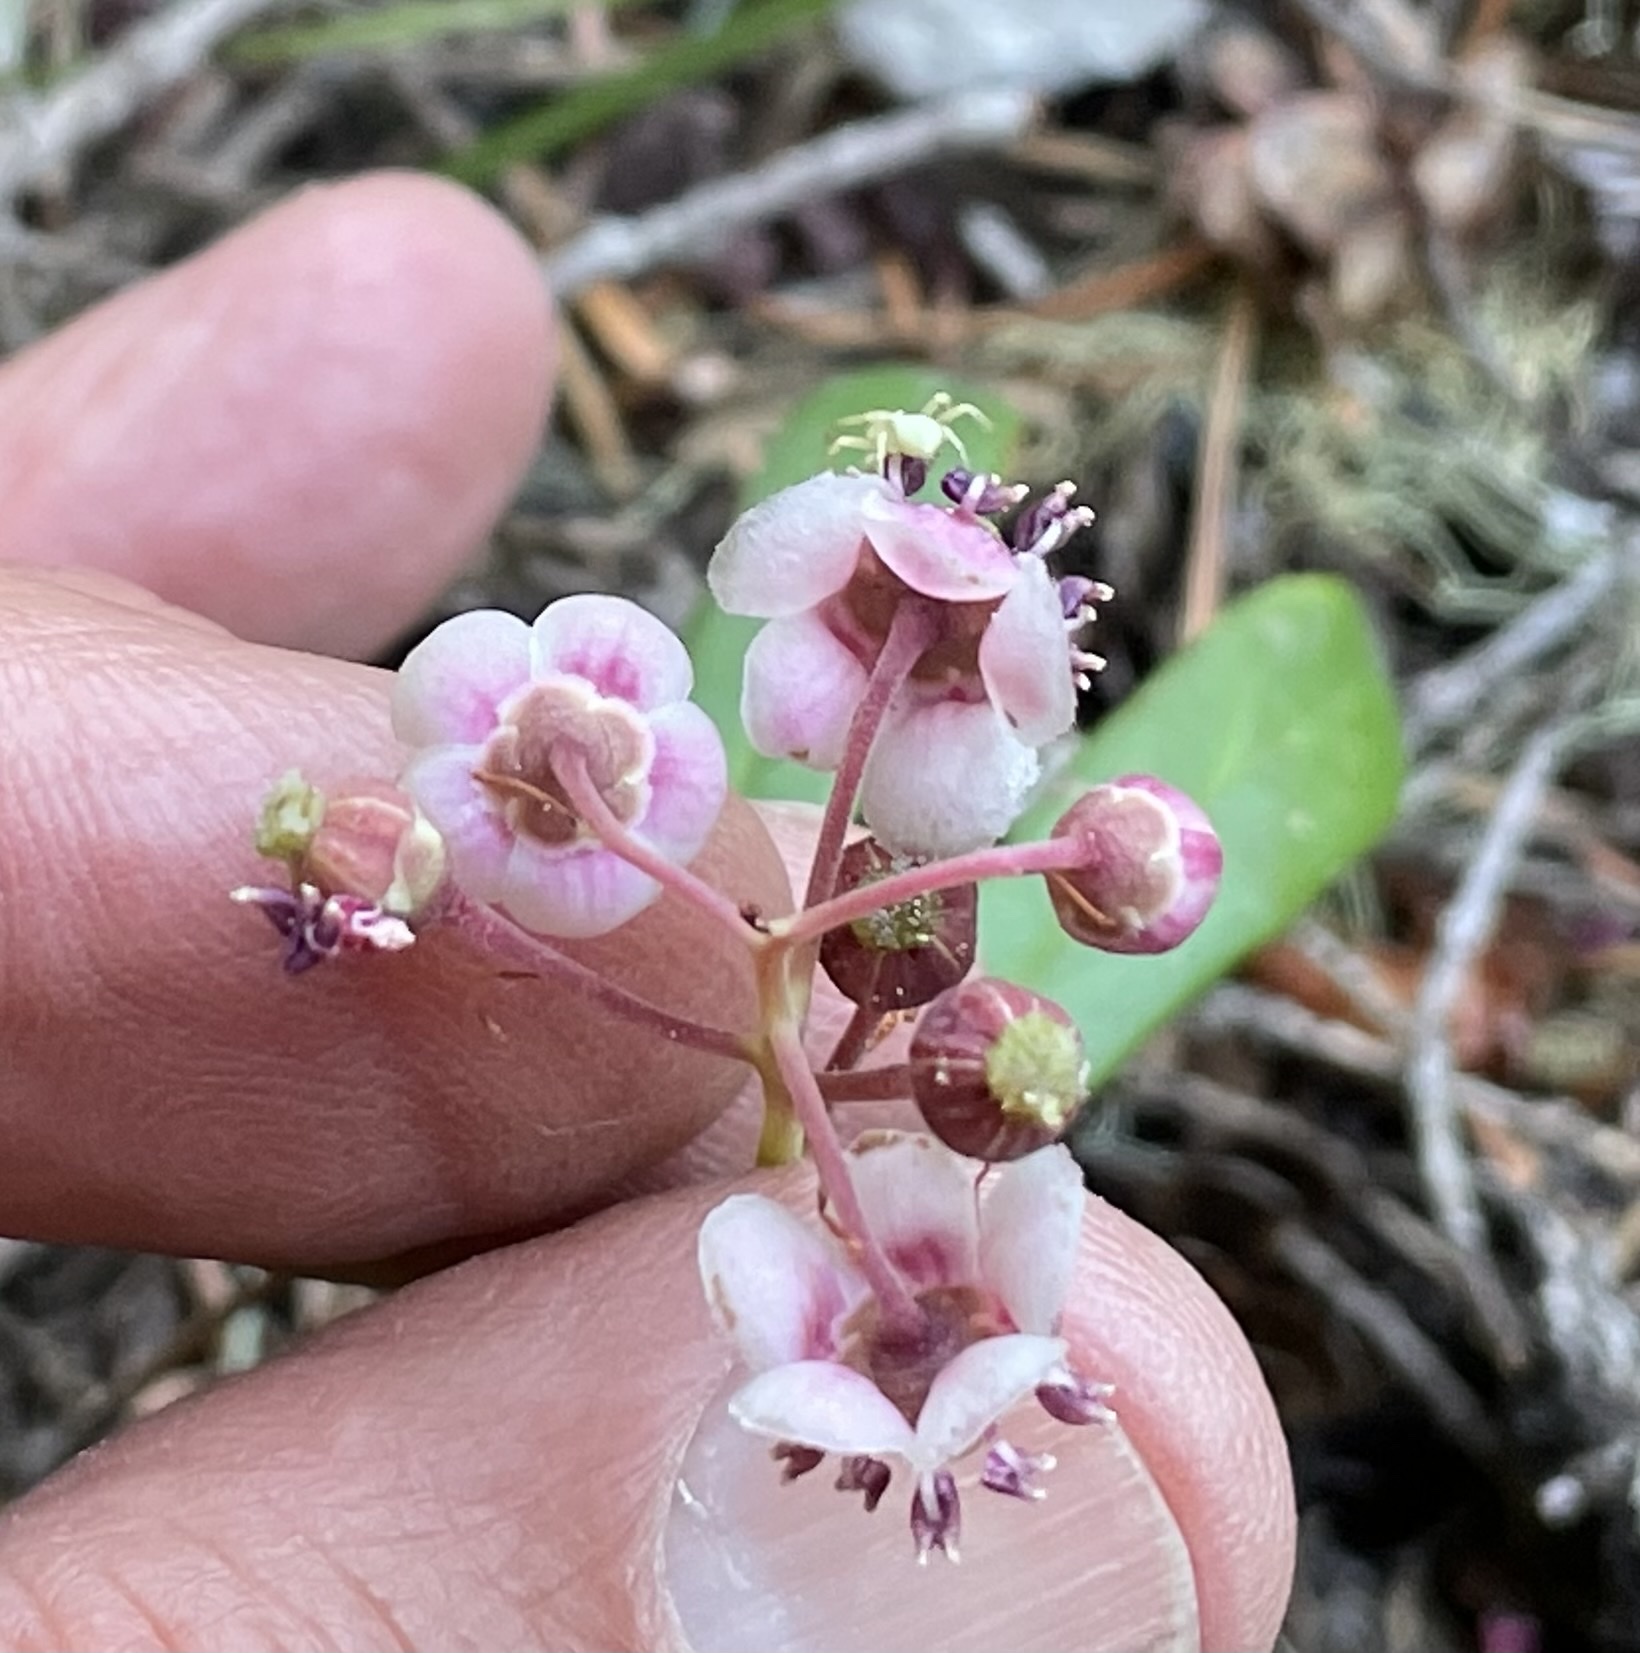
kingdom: Plantae
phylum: Tracheophyta
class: Magnoliopsida
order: Ericales
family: Ericaceae
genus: Chimaphila
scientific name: Chimaphila umbellata
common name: Pipsissewa
